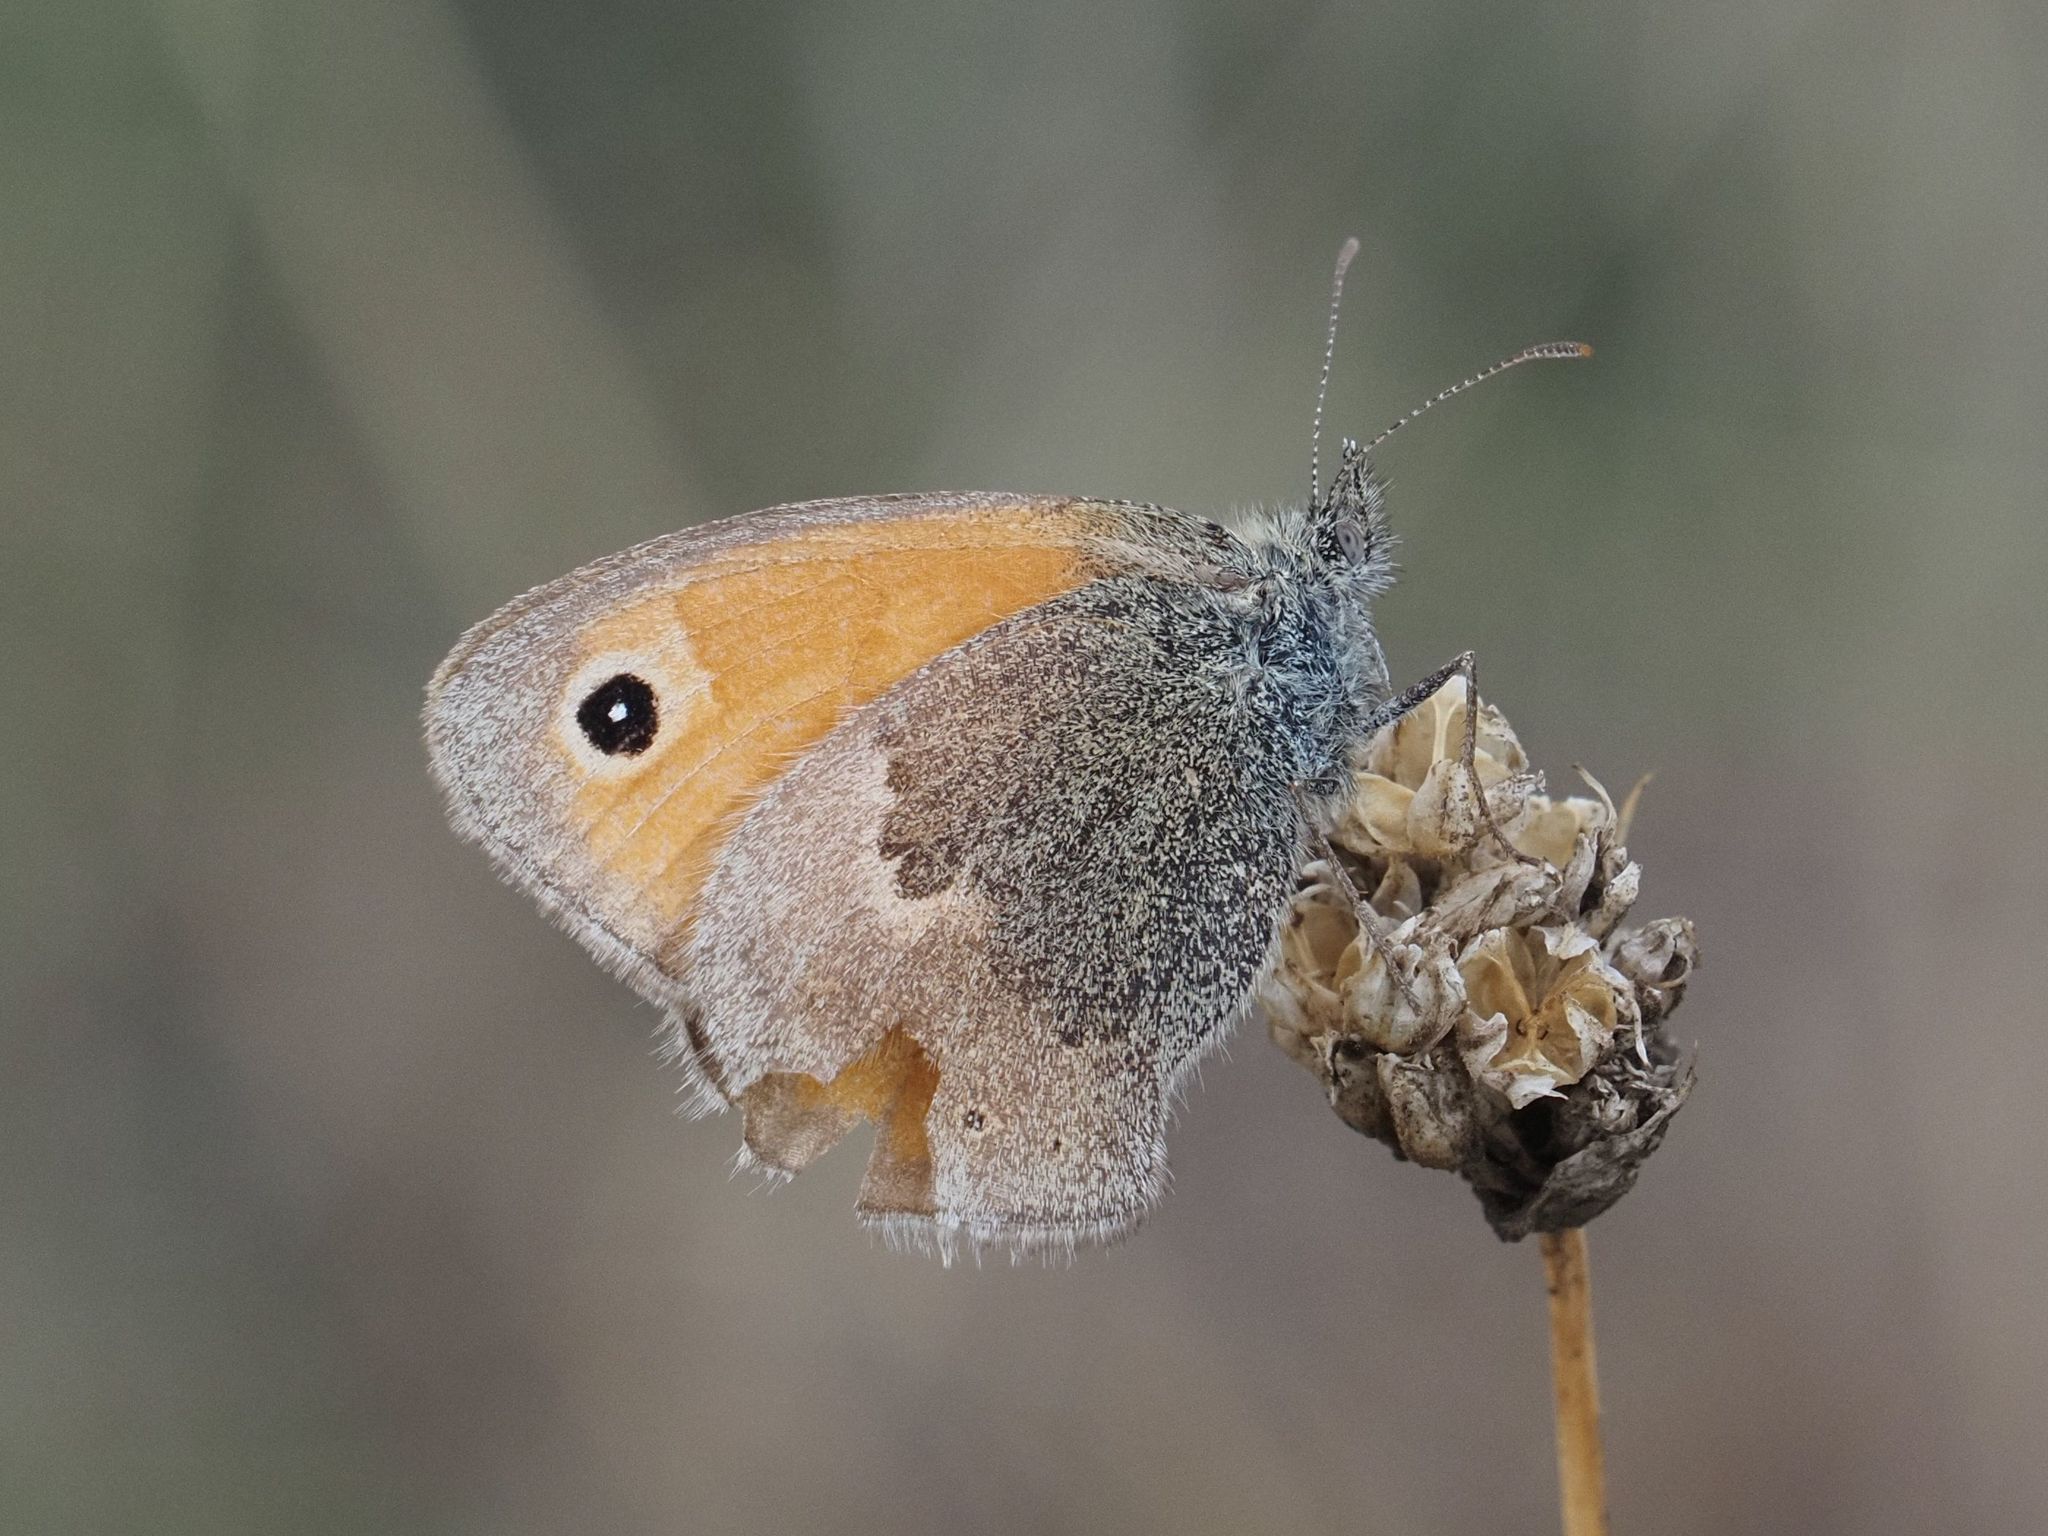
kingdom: Animalia
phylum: Arthropoda
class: Insecta
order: Lepidoptera
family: Nymphalidae
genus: Coenonympha
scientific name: Coenonympha pamphilus
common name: Small heath
